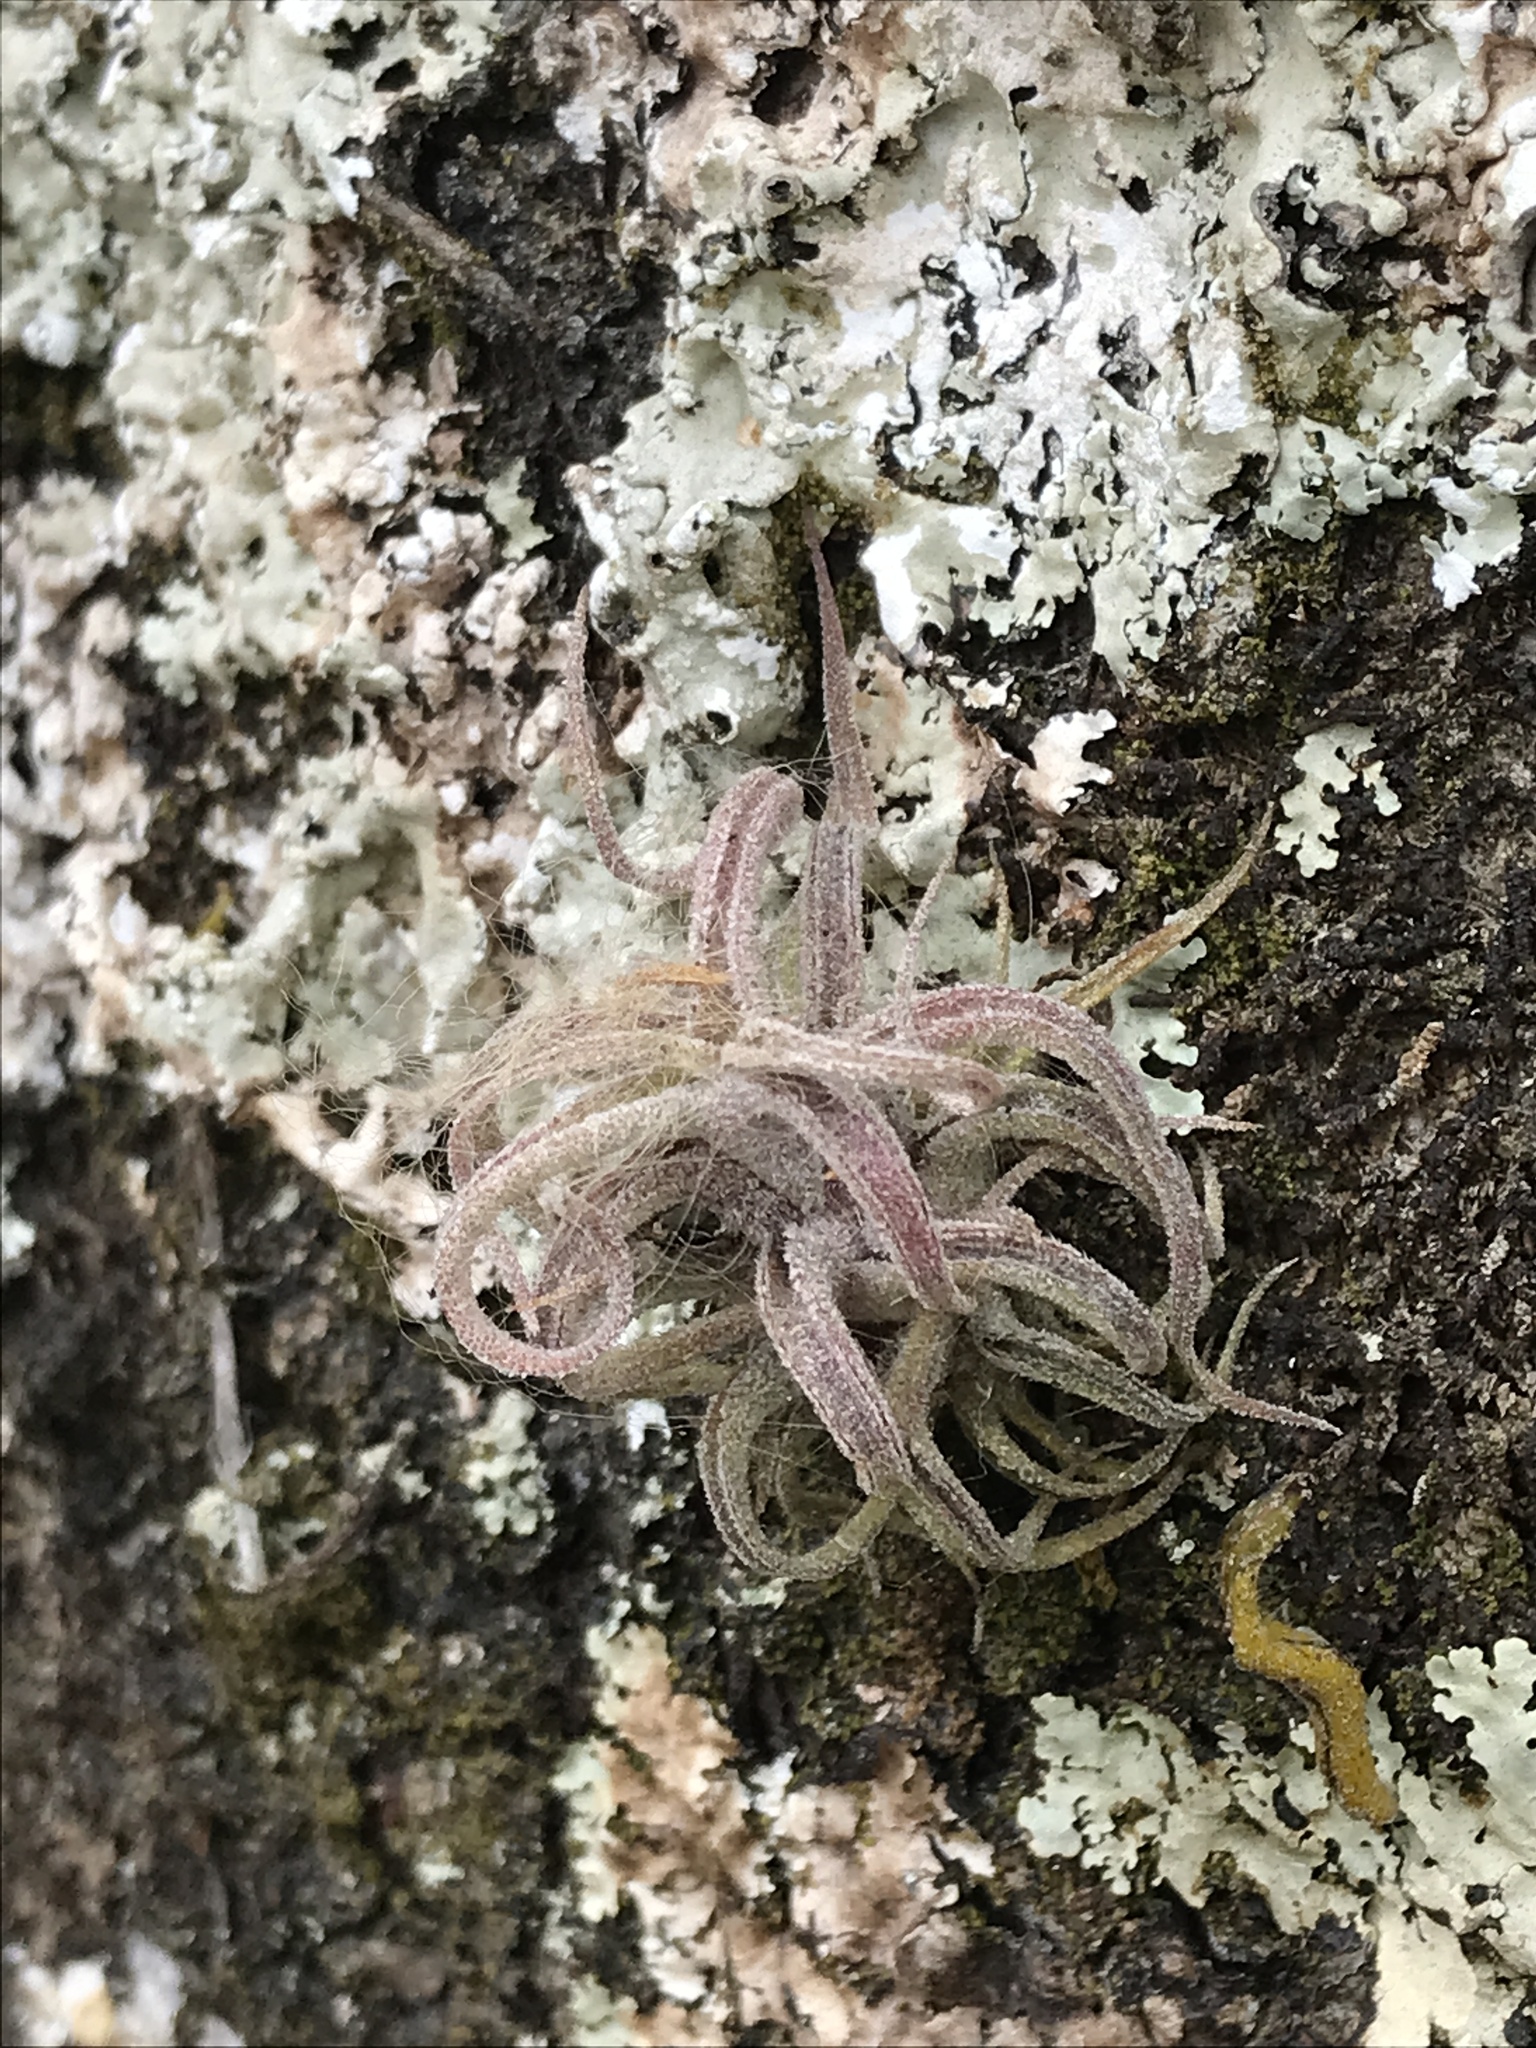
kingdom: Plantae
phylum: Tracheophyta
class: Liliopsida
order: Poales
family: Bromeliaceae
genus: Tillandsia
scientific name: Tillandsia caput-medusae
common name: Octopus plant
